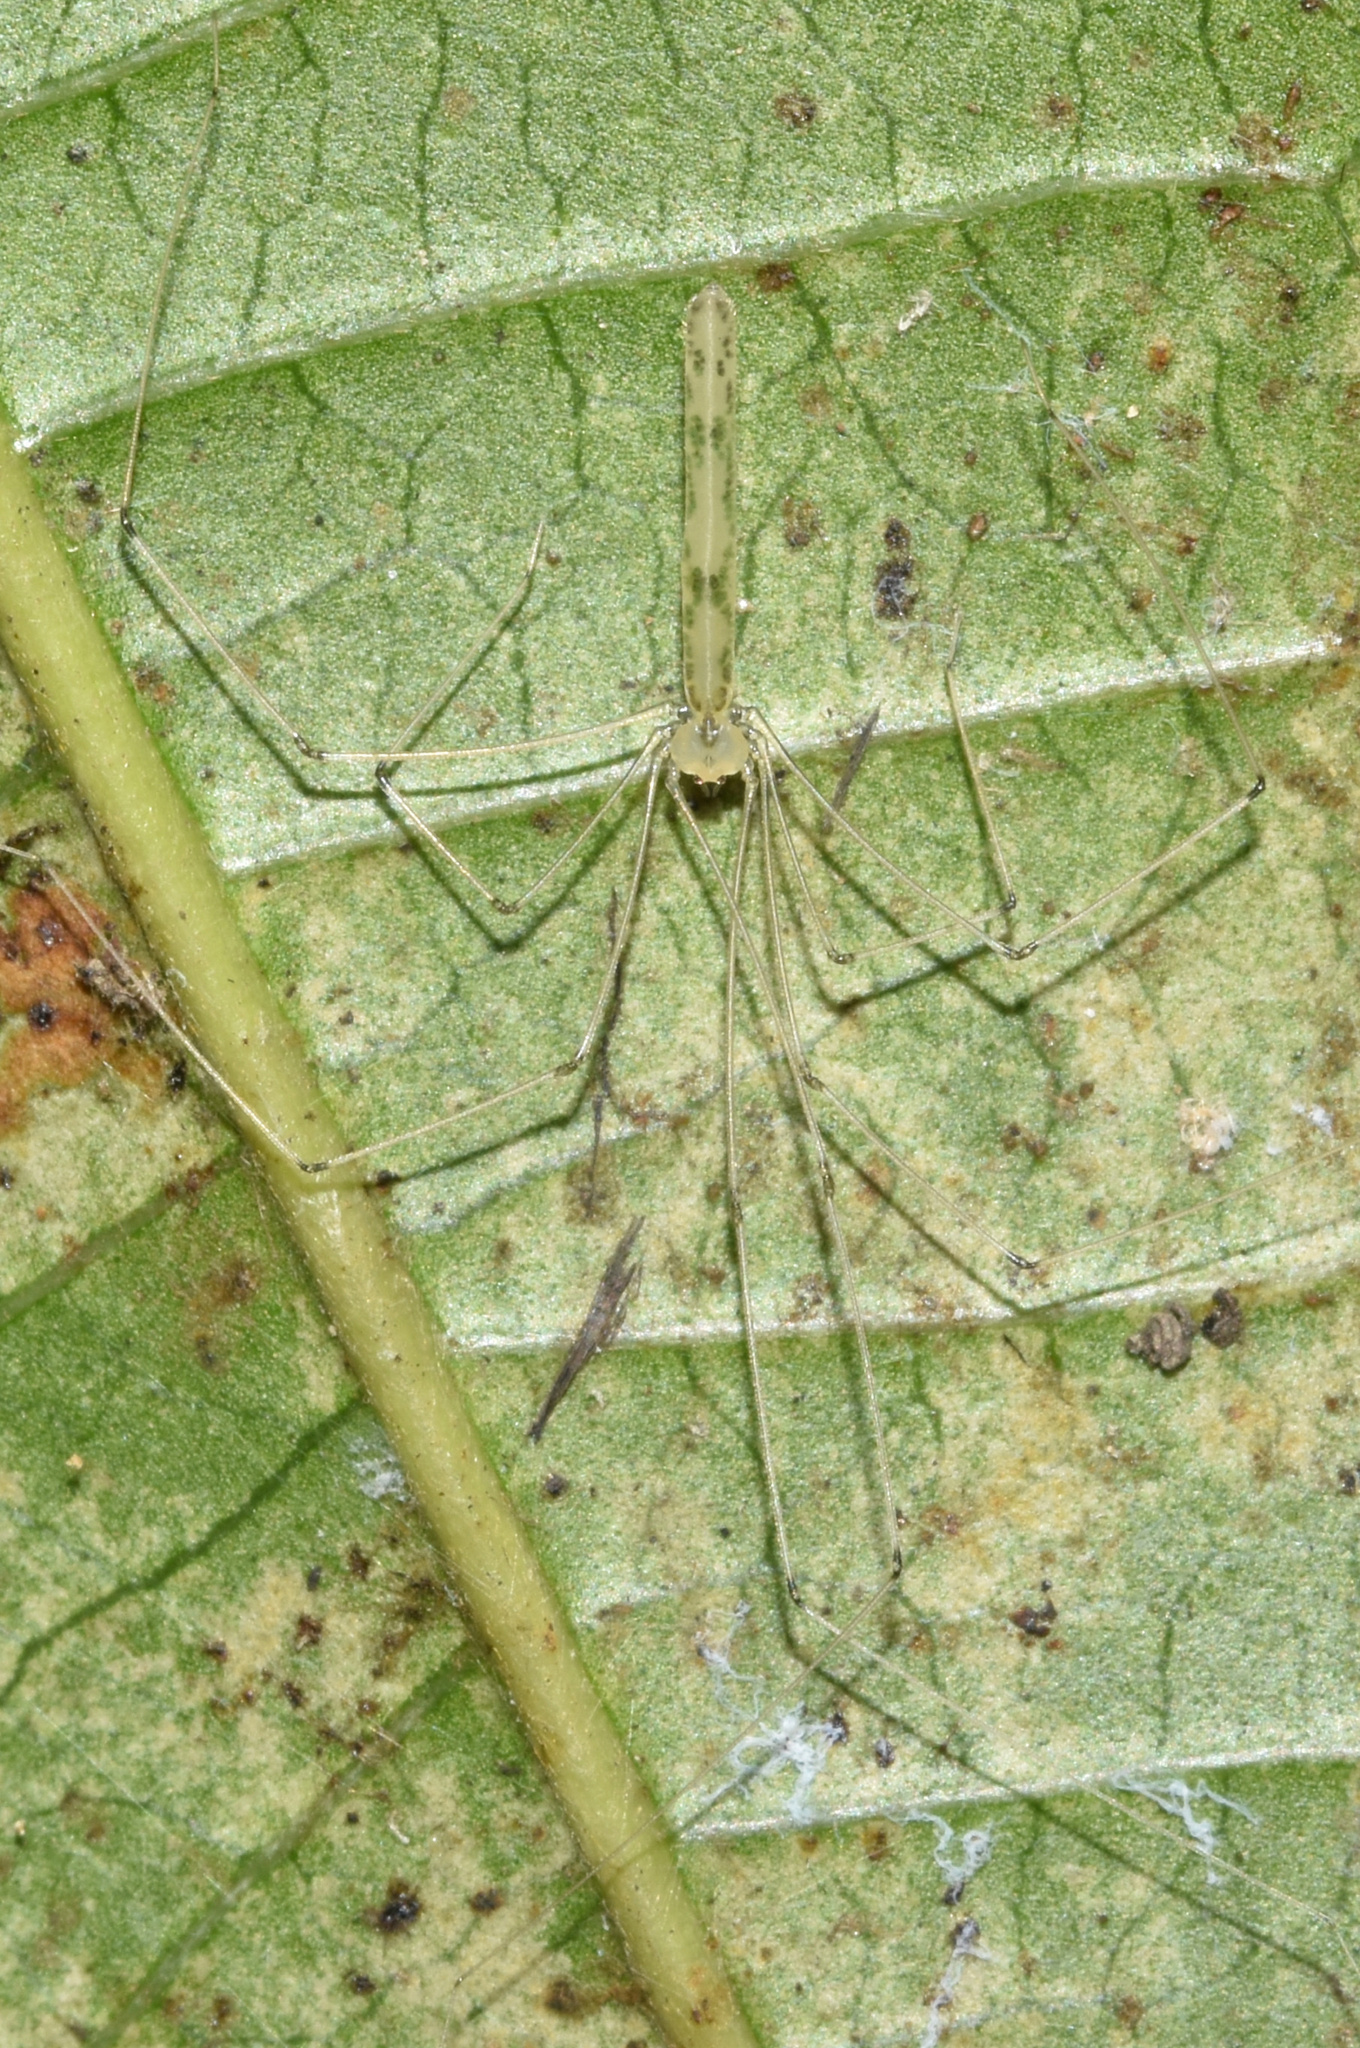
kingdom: Animalia
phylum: Arthropoda
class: Arachnida
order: Araneae
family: Pholcidae
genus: Leptopholcus
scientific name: Leptopholcus gracilis
